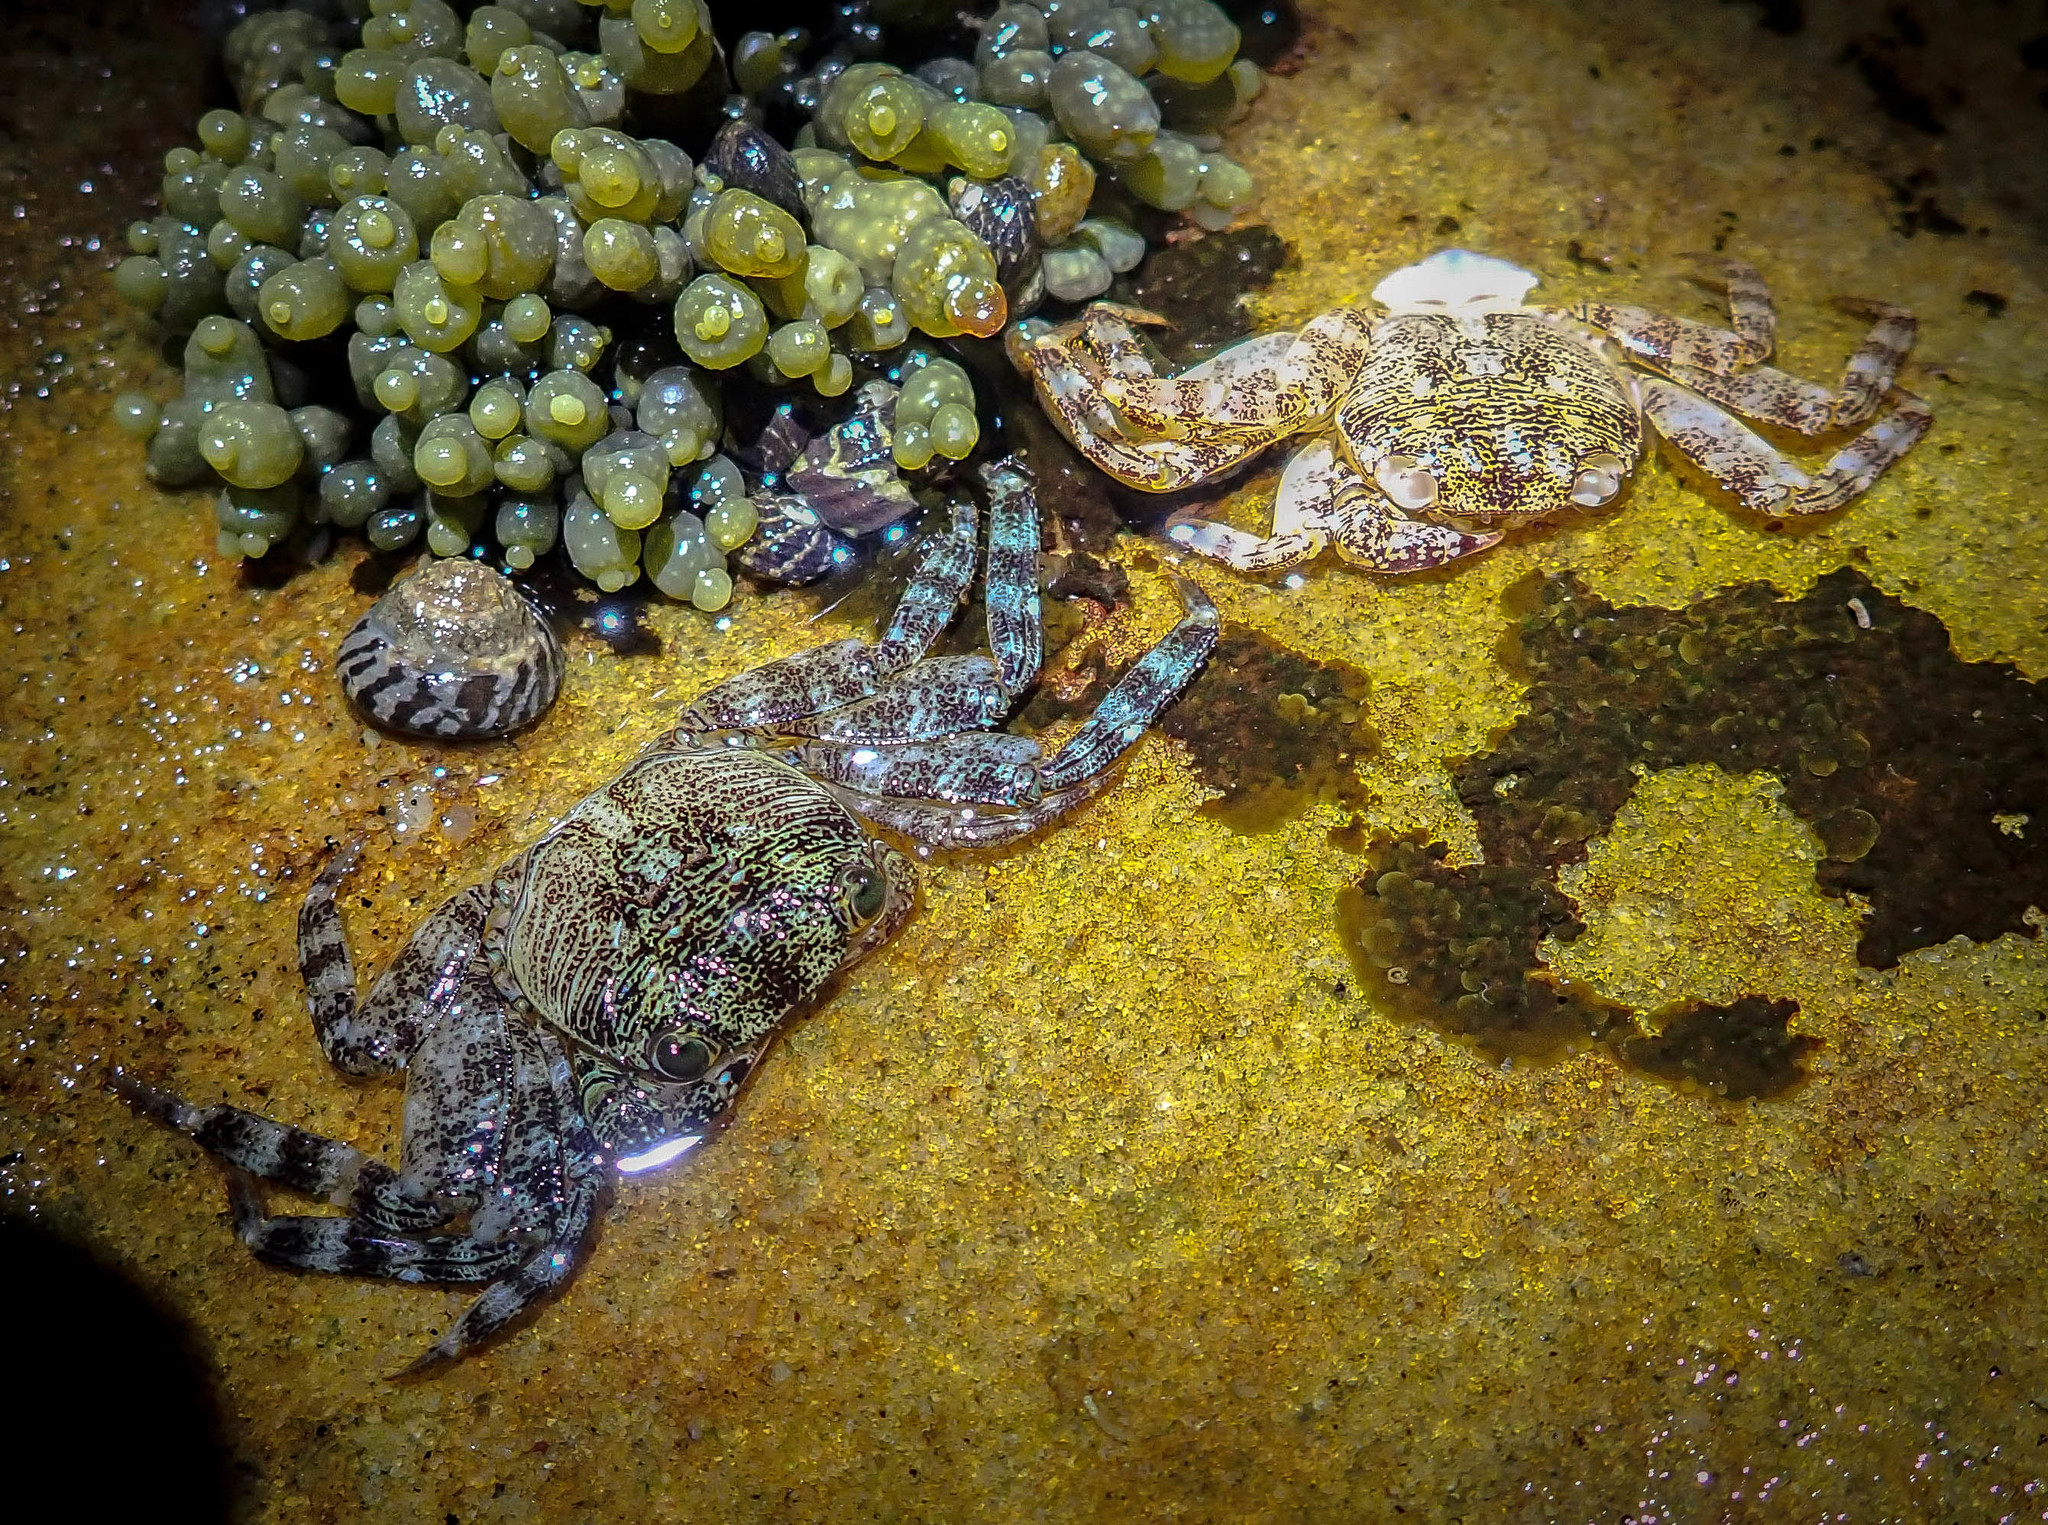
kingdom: Animalia
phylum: Arthropoda
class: Malacostraca
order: Decapoda
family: Grapsidae
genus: Leptograpsus
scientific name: Leptograpsus variegatus
